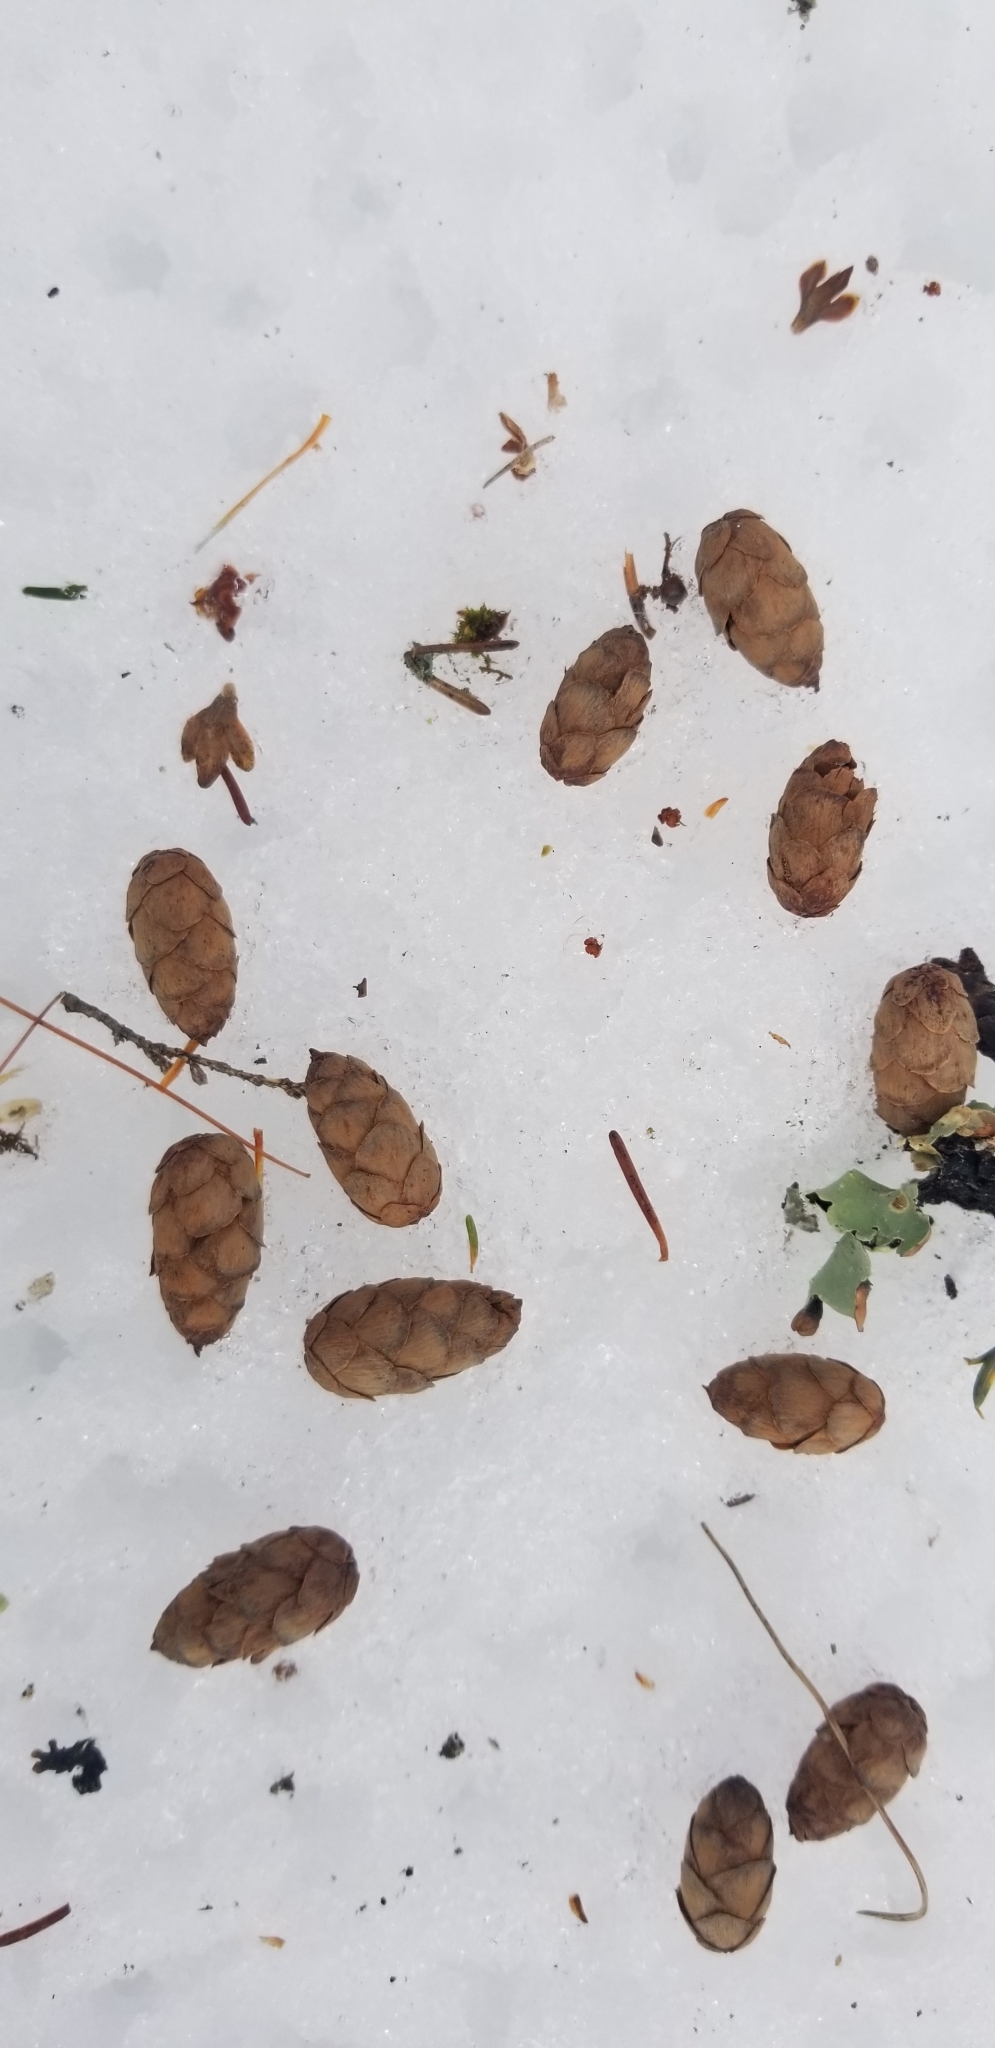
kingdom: Plantae
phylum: Tracheophyta
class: Pinopsida
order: Pinales
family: Pinaceae
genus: Tsuga
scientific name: Tsuga canadensis
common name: Eastern hemlock
